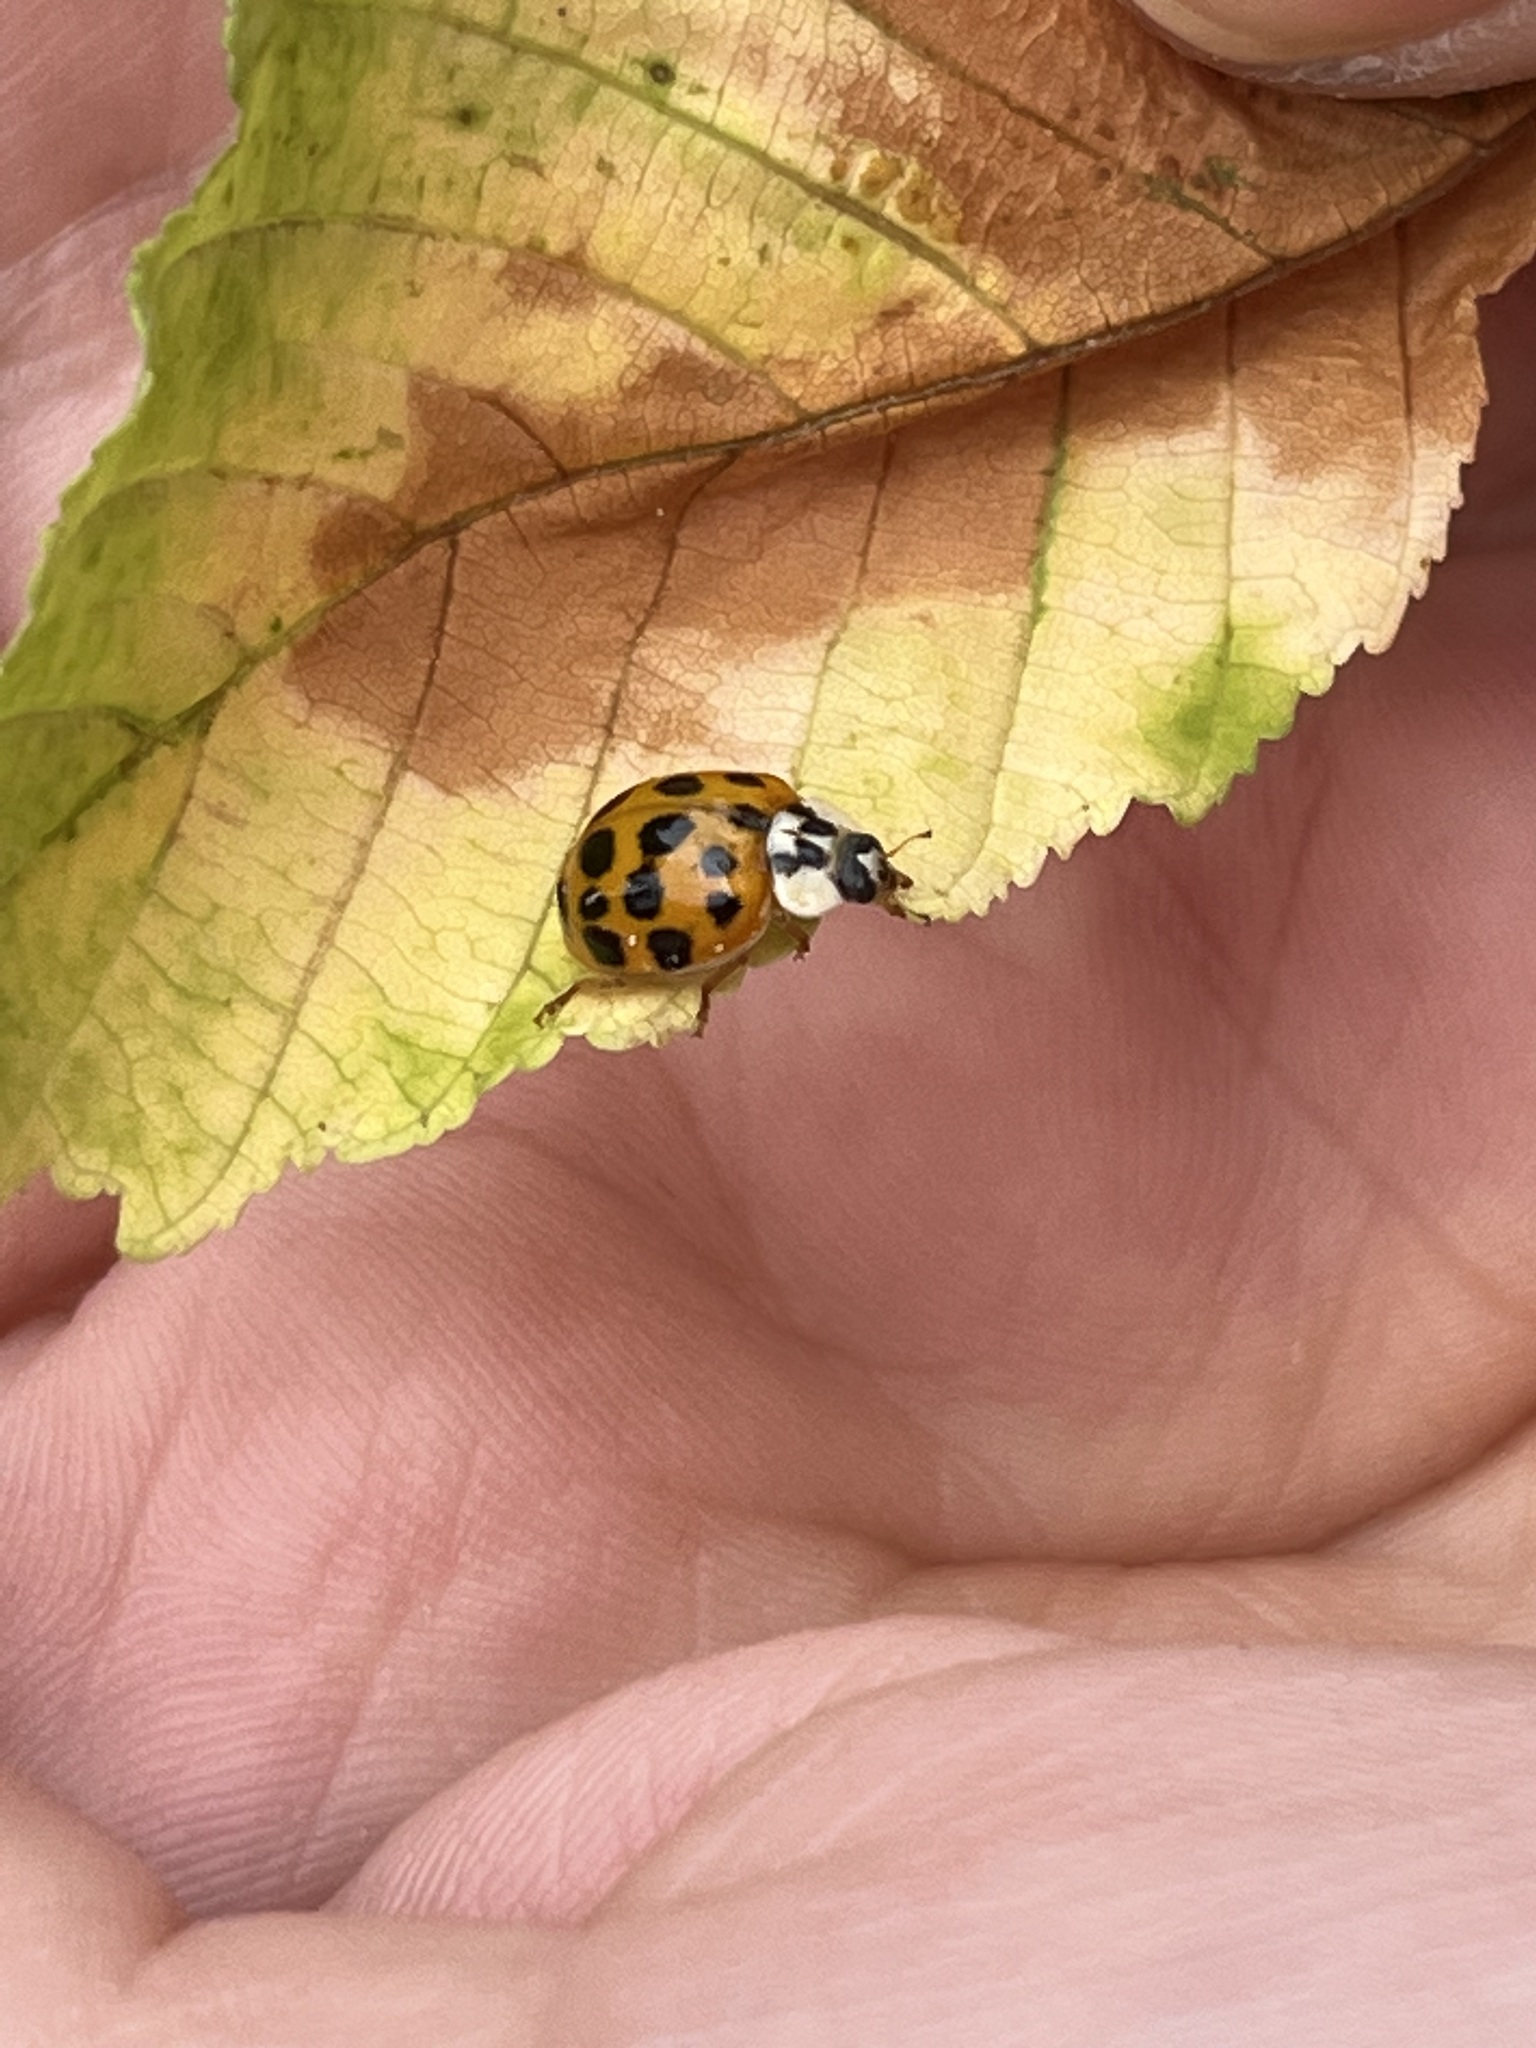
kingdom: Animalia
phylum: Arthropoda
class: Insecta
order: Coleoptera
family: Coccinellidae
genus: Harmonia
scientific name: Harmonia axyridis
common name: Harlequin ladybird
